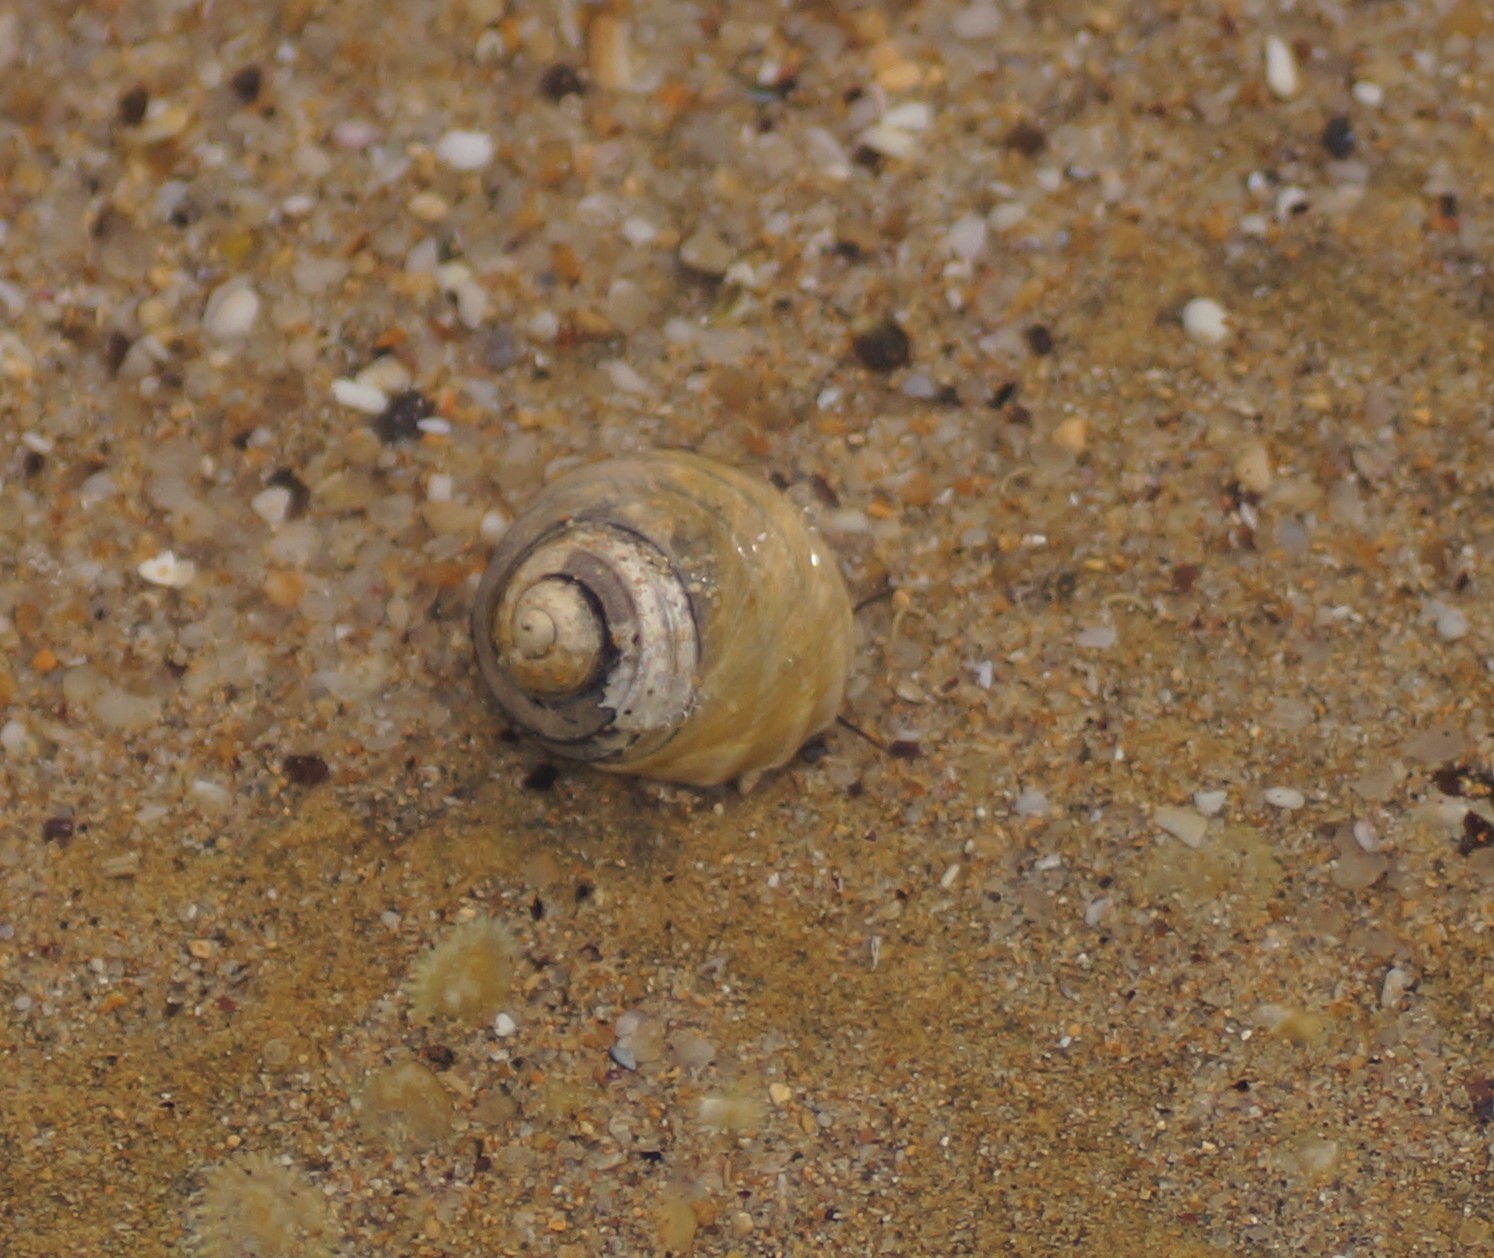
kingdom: Animalia
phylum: Mollusca
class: Gastropoda
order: Trochida
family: Trochidae
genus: Austrocochlea
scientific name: Austrocochlea constricta
